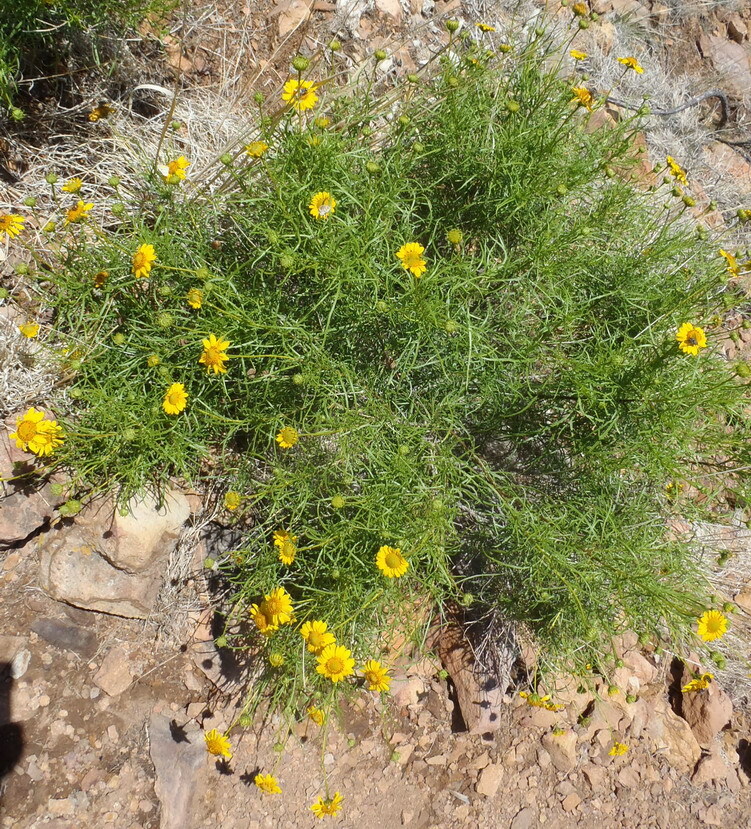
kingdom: Plantae
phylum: Tracheophyta
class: Magnoliopsida
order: Asterales
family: Asteraceae
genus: Sidneya
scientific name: Sidneya tenuifolia
